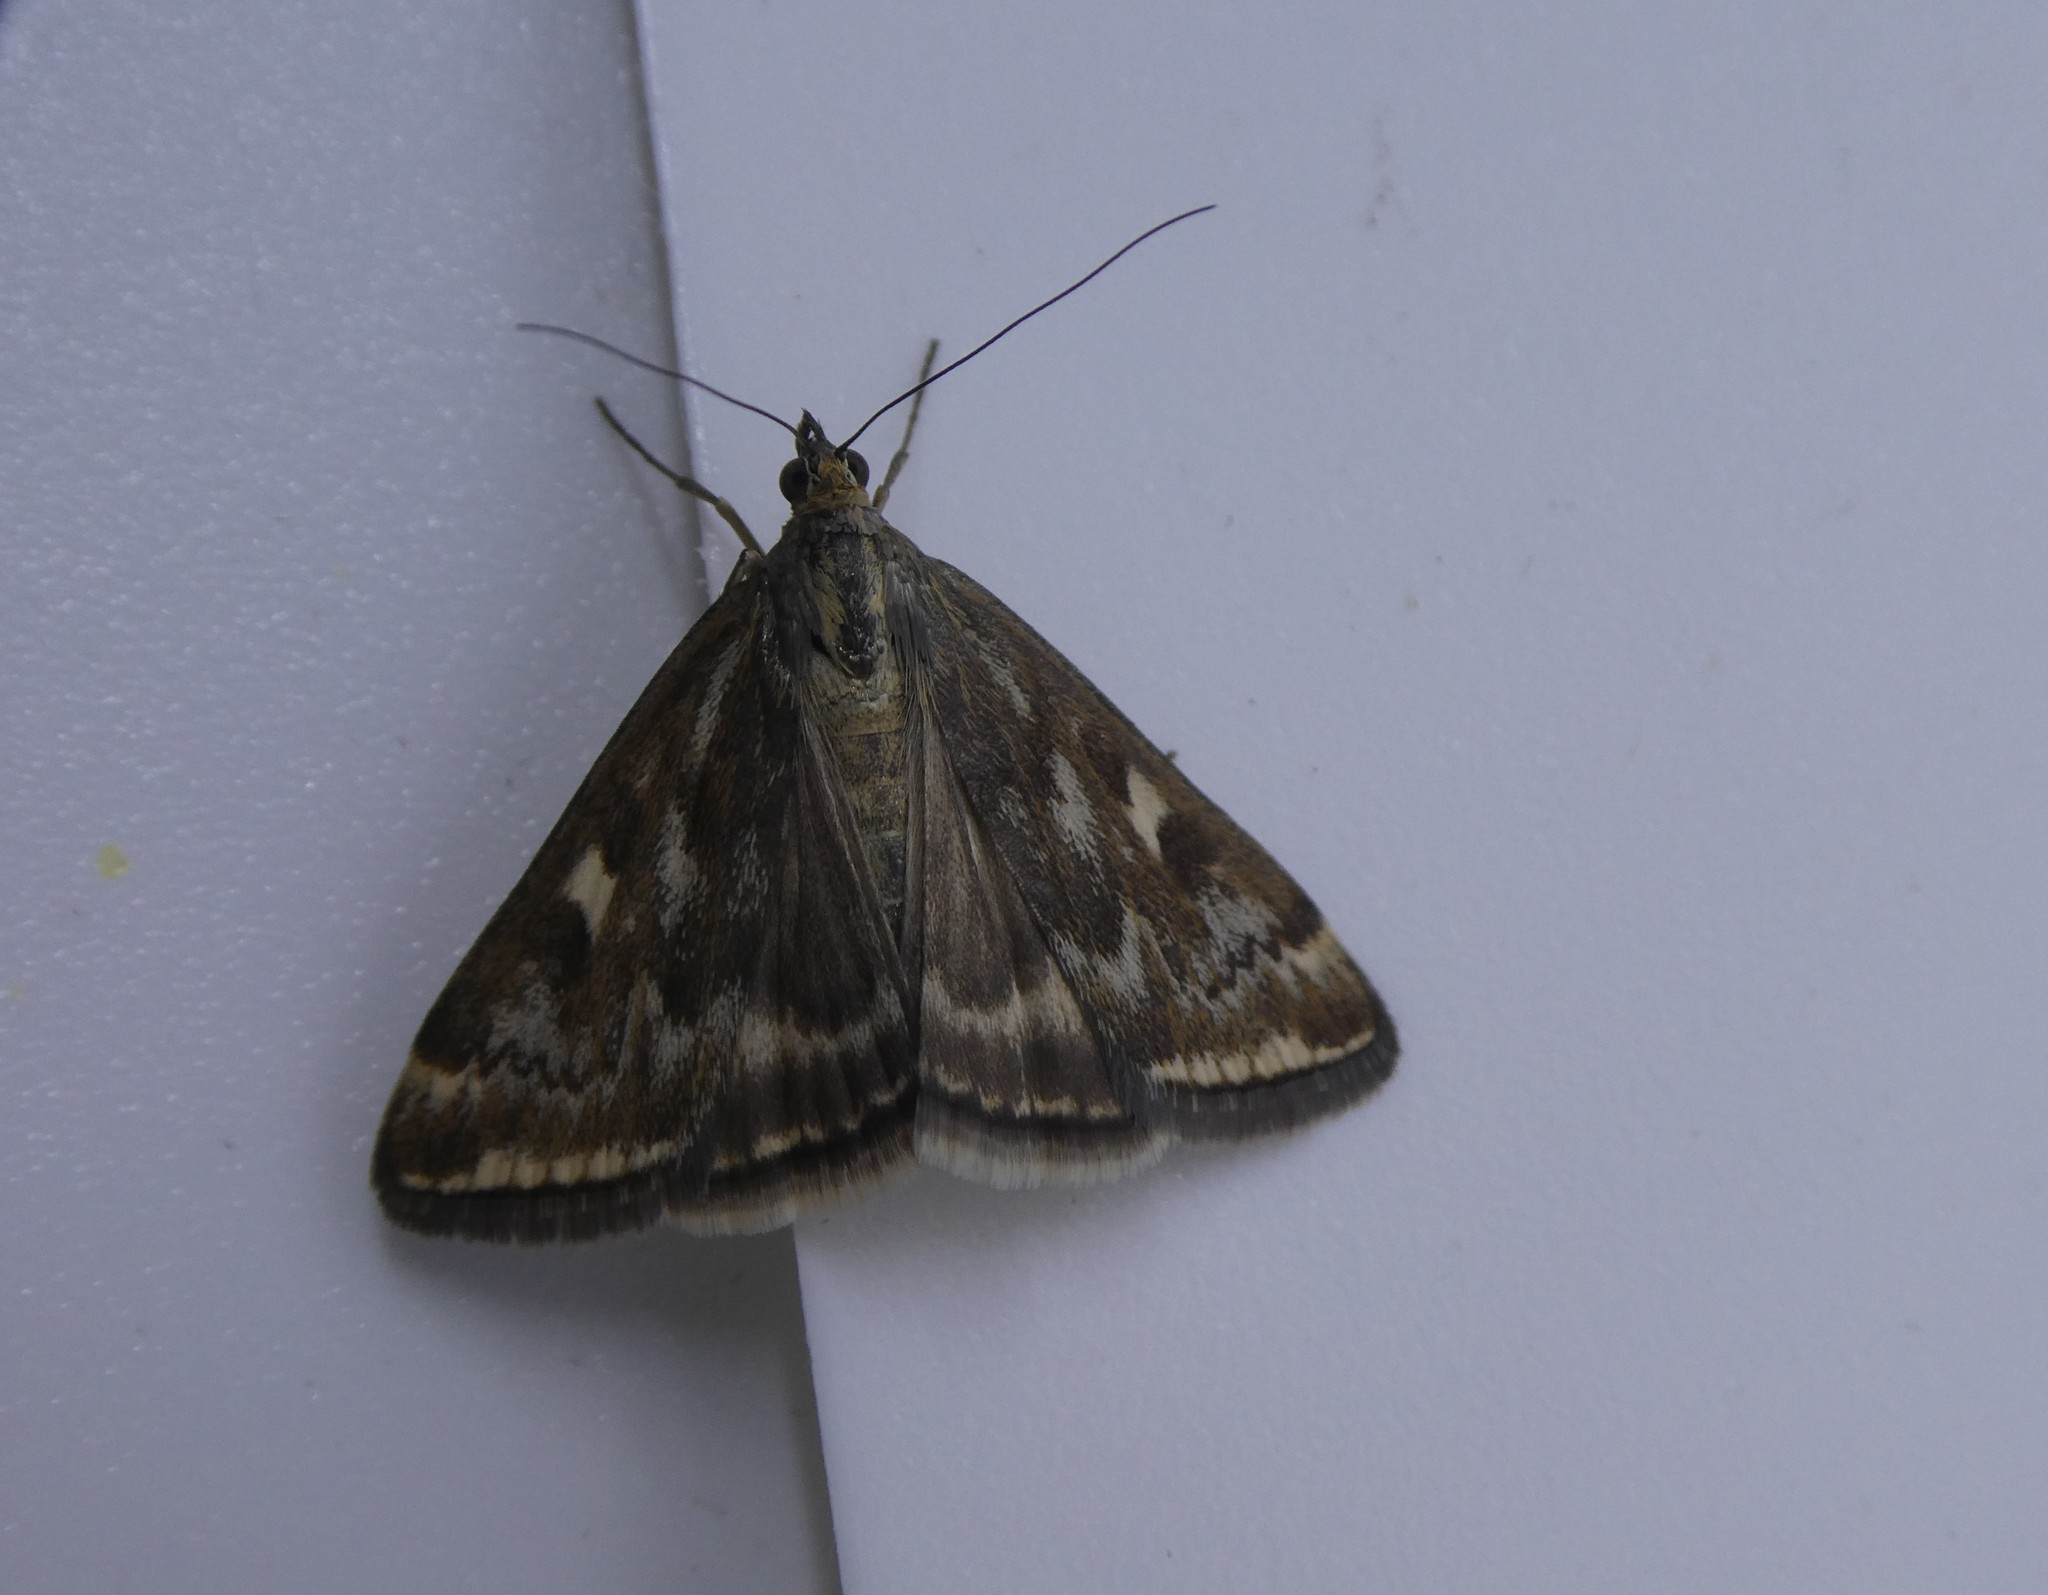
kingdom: Animalia
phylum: Arthropoda
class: Insecta
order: Lepidoptera
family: Crambidae
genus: Loxostege
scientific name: Loxostege
